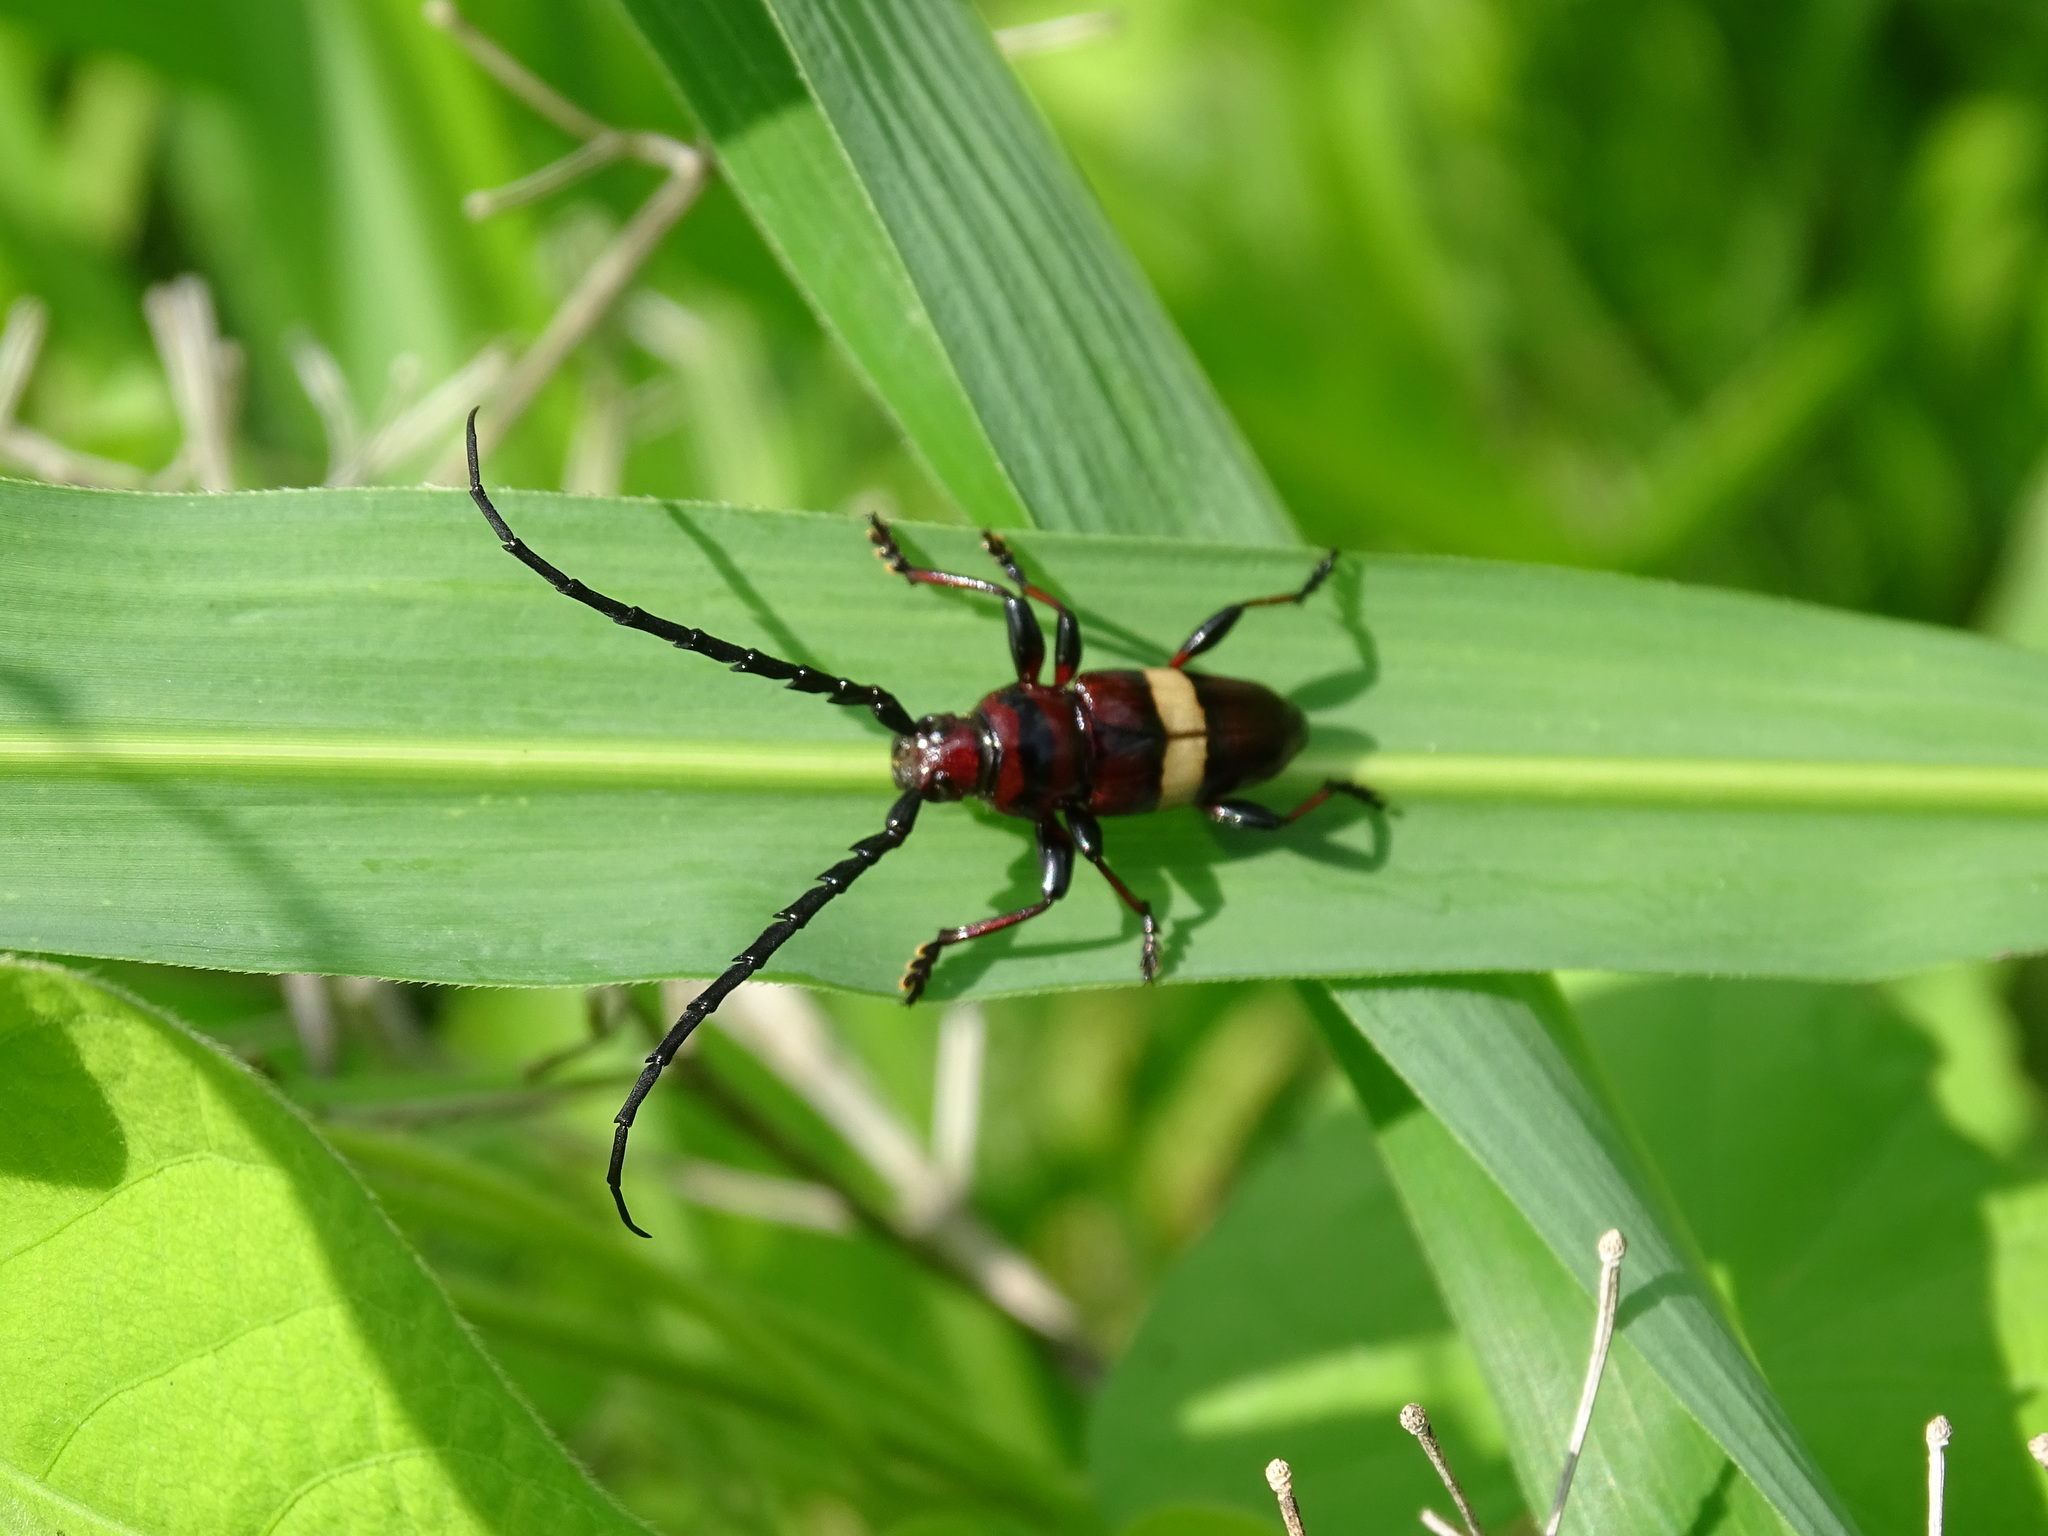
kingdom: Animalia
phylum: Arthropoda
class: Insecta
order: Coleoptera
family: Cerambycidae
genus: Lissonotus
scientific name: Lissonotus flavocinctus
